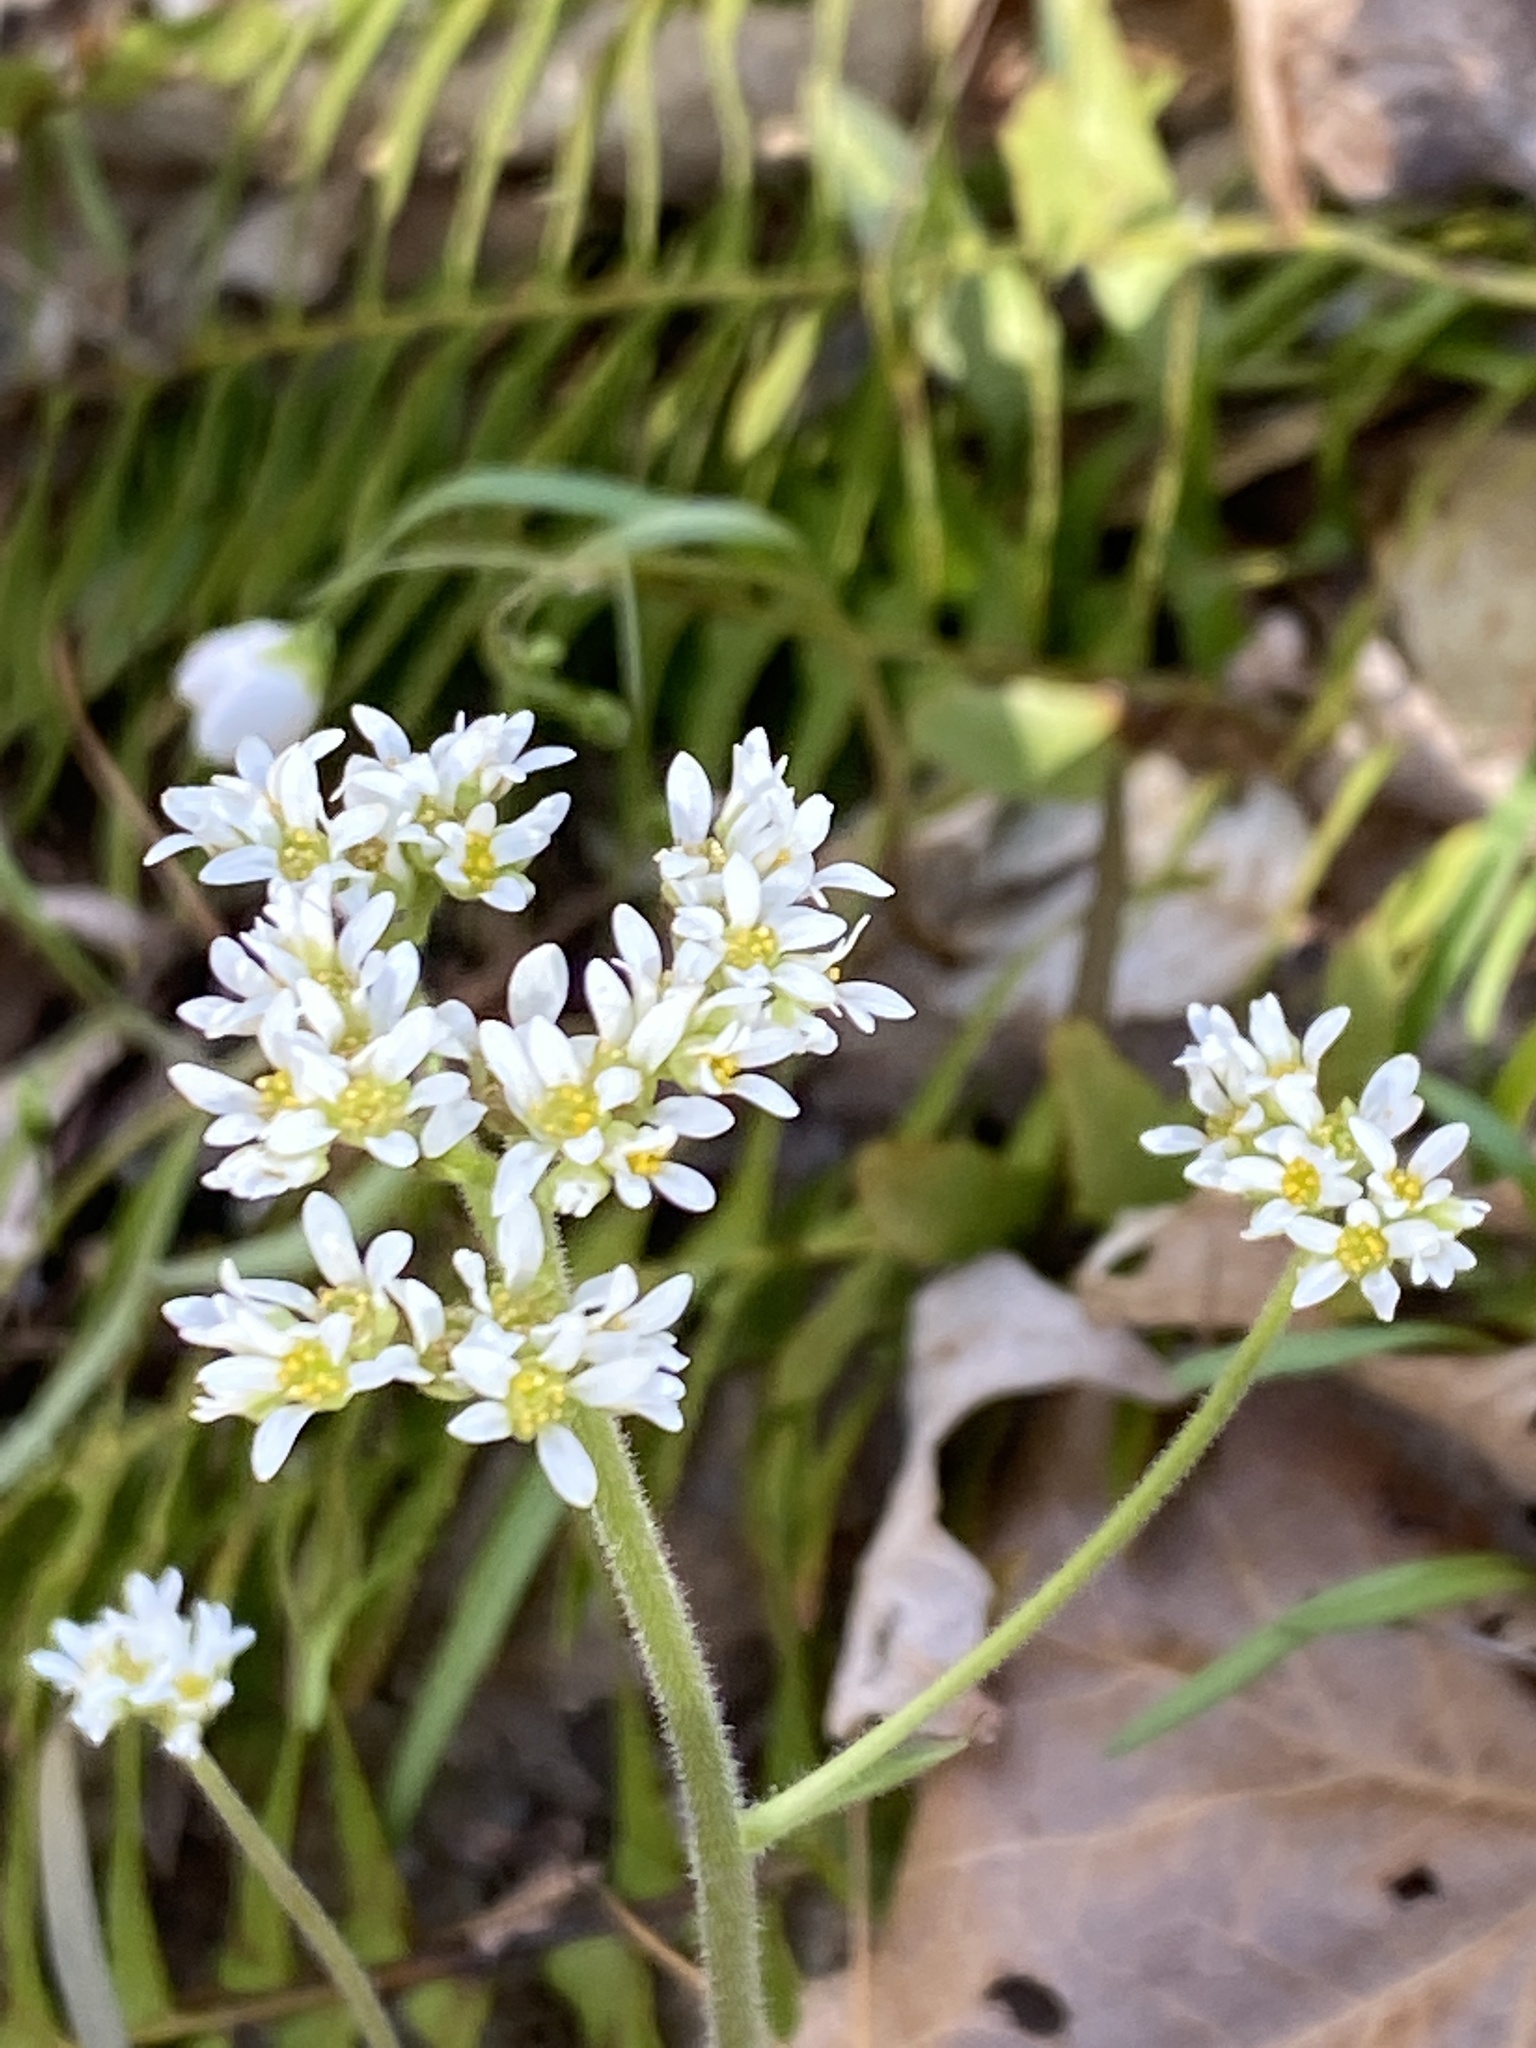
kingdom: Plantae
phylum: Tracheophyta
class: Magnoliopsida
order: Saxifragales
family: Saxifragaceae
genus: Micranthes
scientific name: Micranthes virginiensis
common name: Early saxifrage
